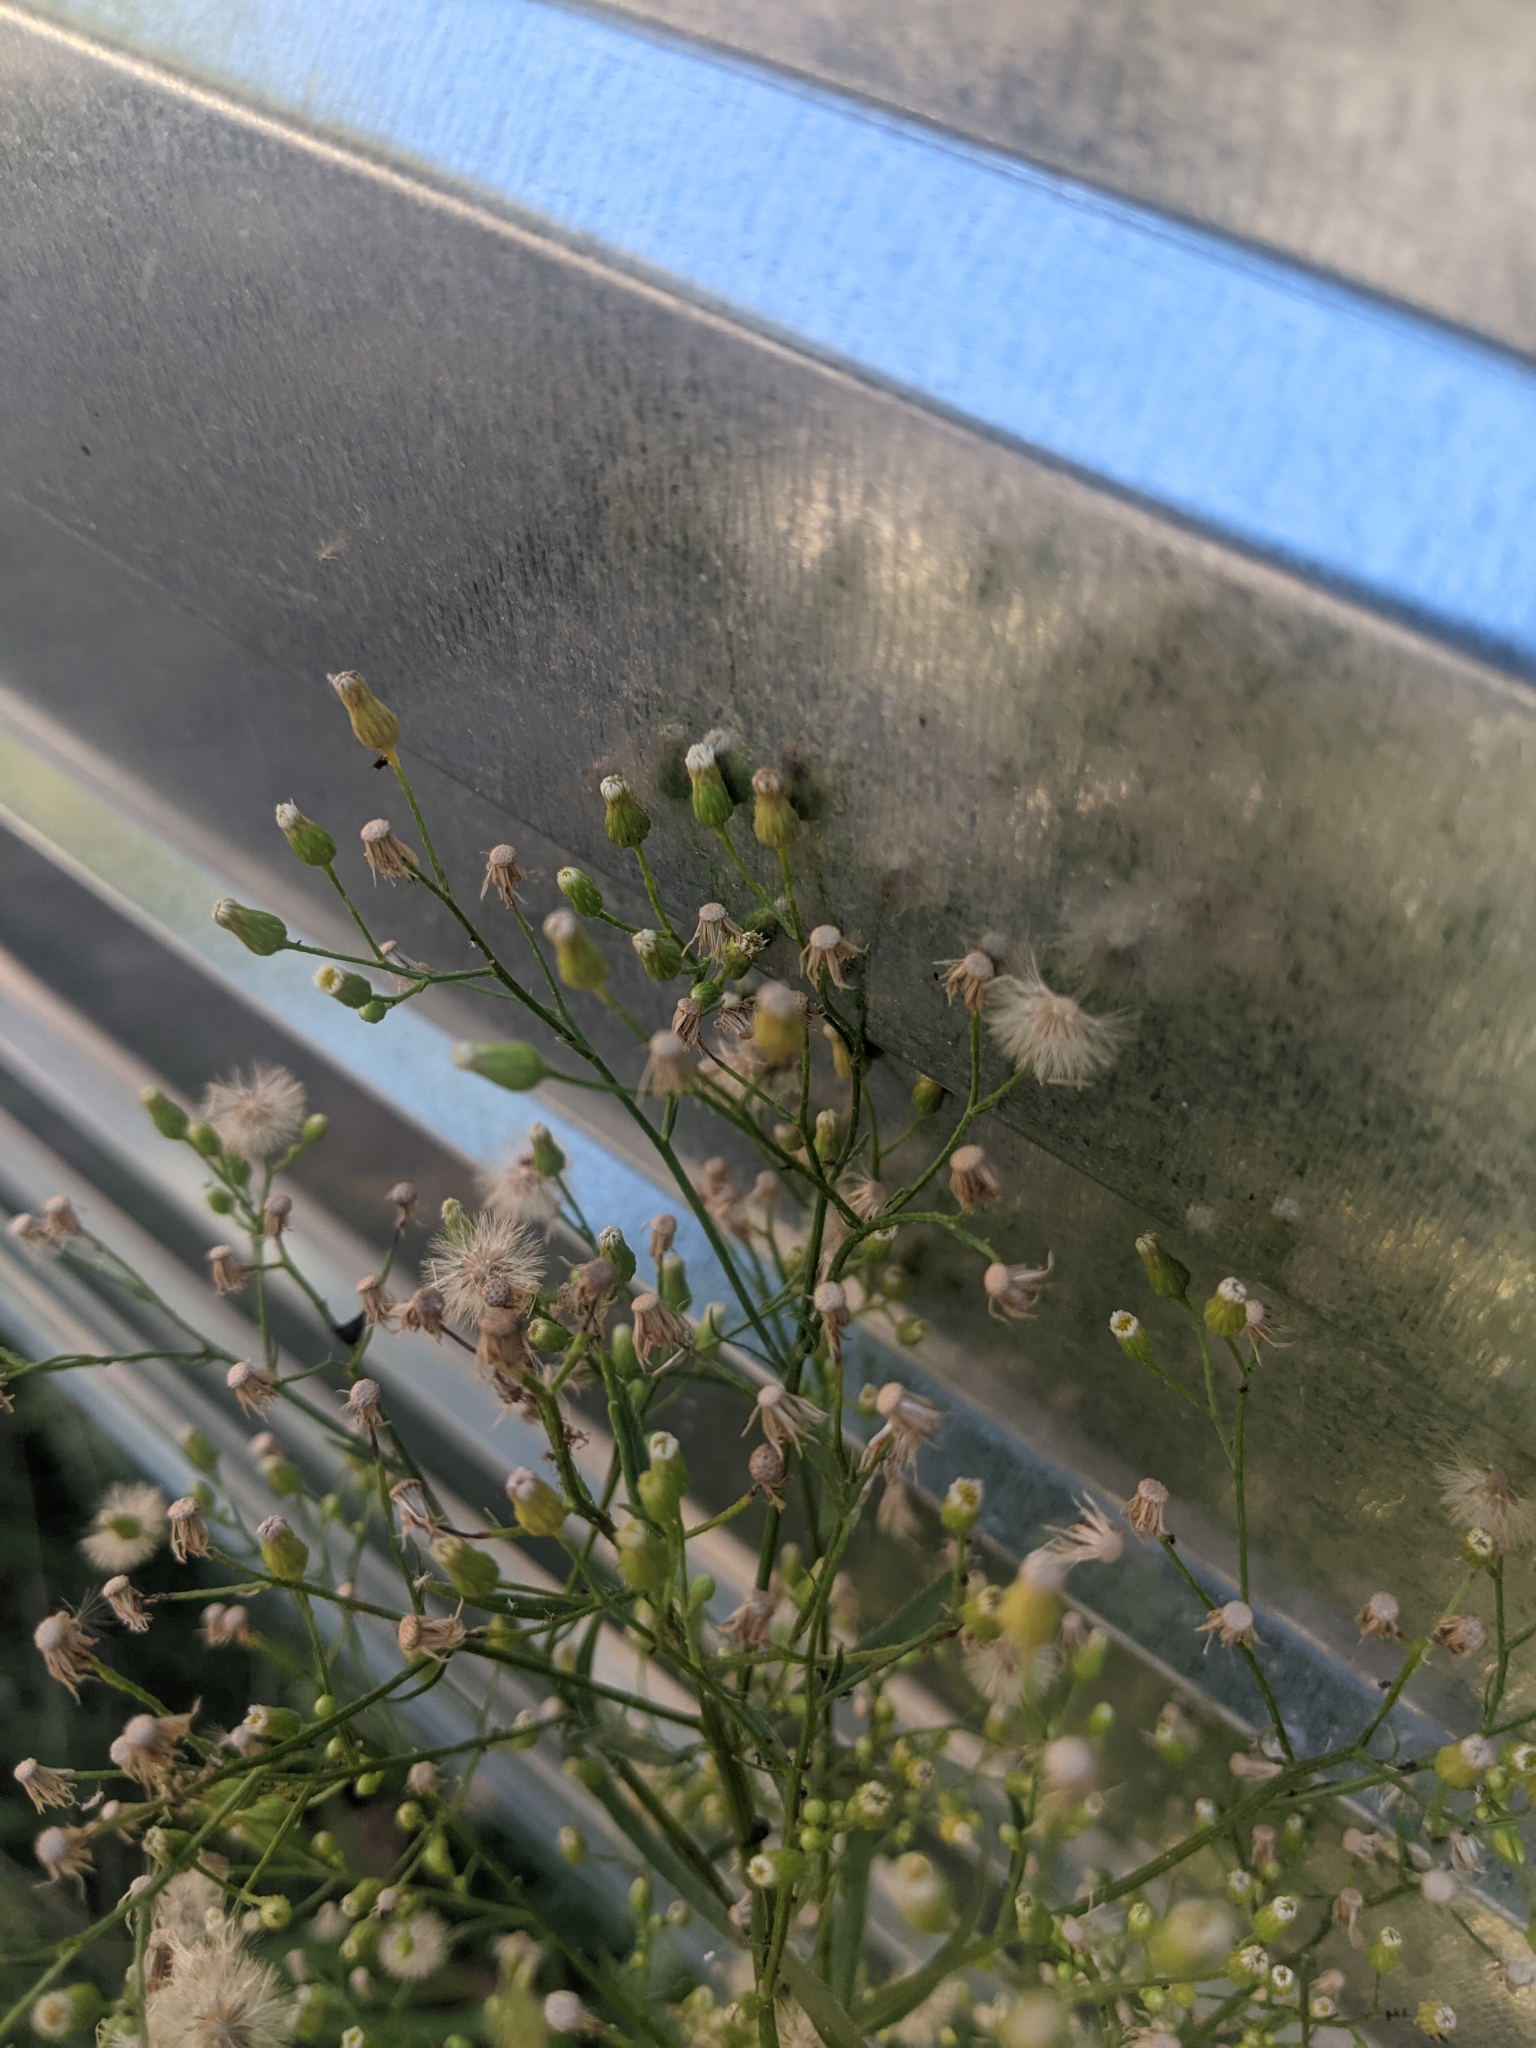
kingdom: Plantae
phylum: Tracheophyta
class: Magnoliopsida
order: Asterales
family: Asteraceae
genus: Erigeron
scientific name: Erigeron canadensis
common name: Canadian fleabane
